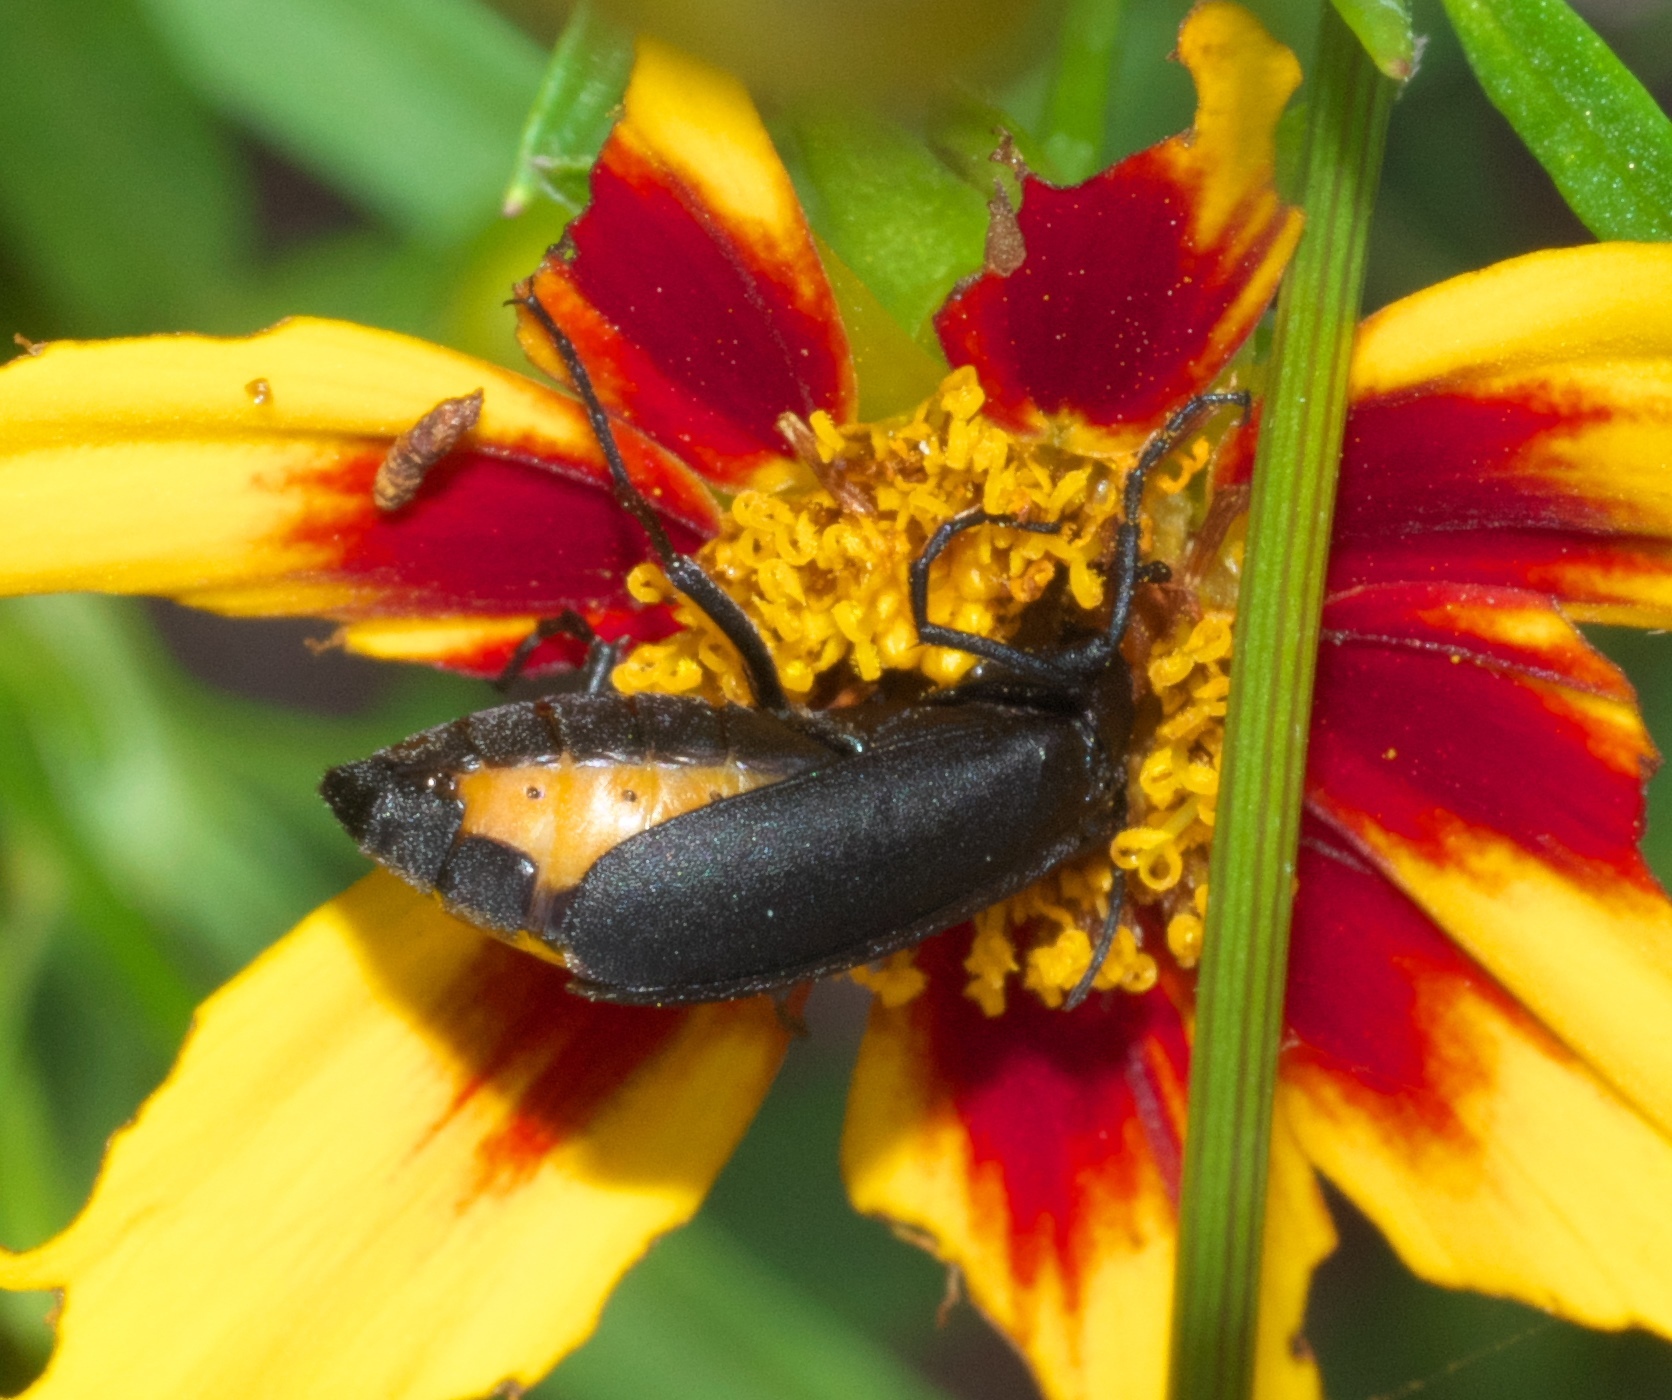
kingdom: Animalia
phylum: Arthropoda
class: Insecta
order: Coleoptera
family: Meloidae
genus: Epicauta
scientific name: Epicauta atrata
